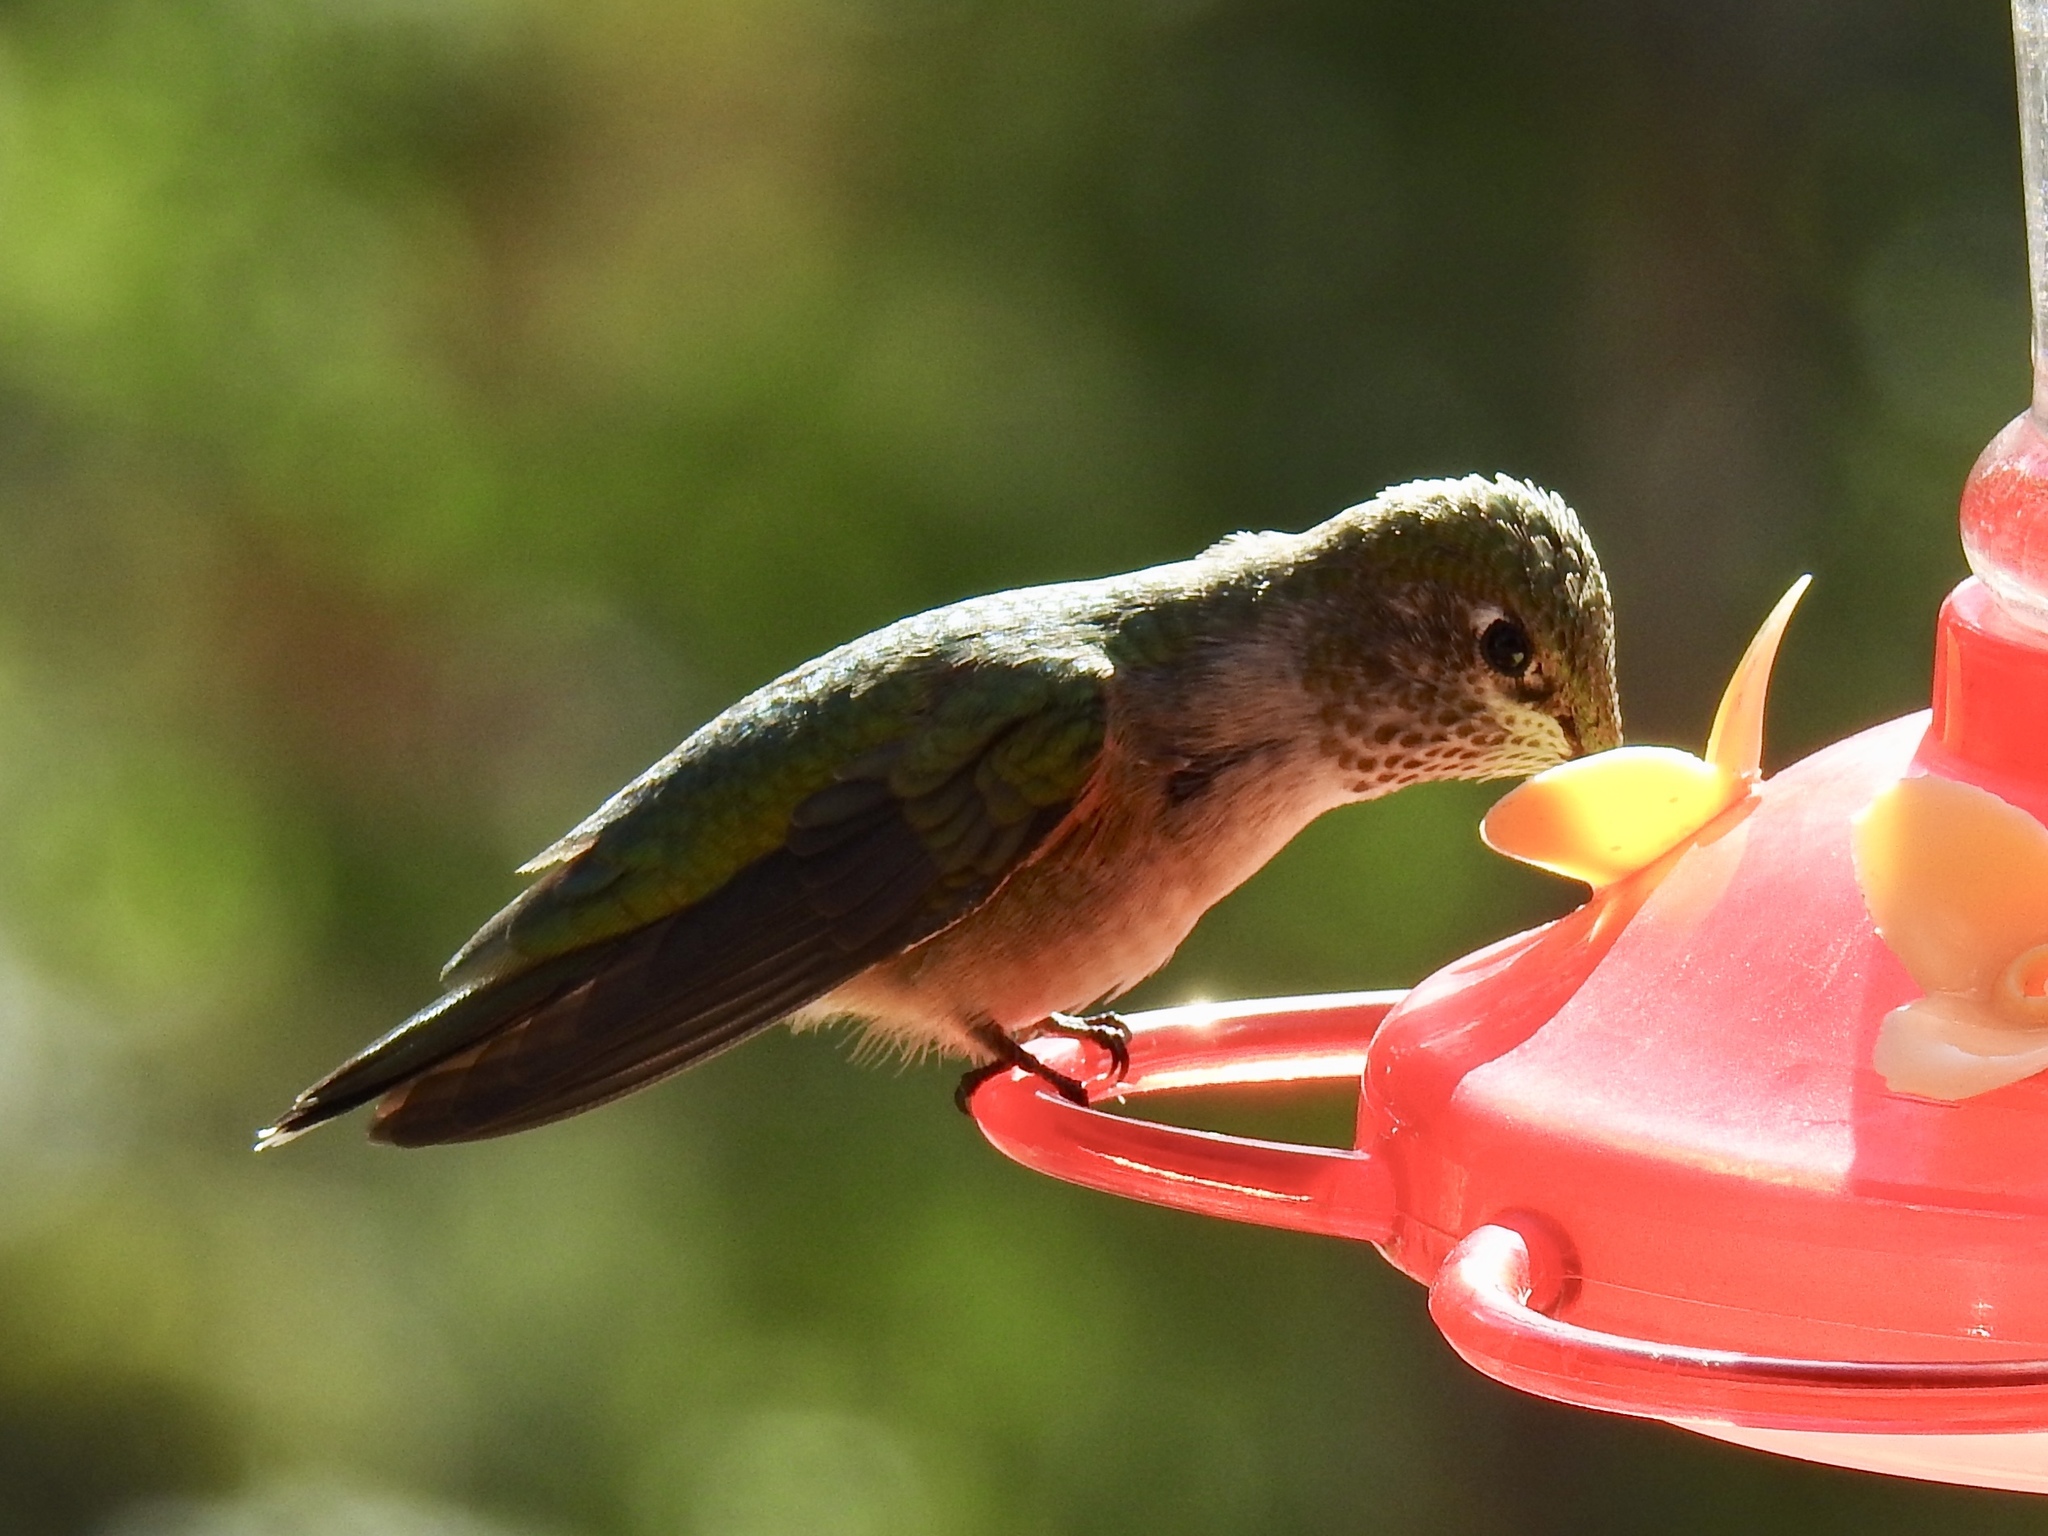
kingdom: Animalia
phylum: Chordata
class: Aves
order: Apodiformes
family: Trochilidae
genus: Selasphorus
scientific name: Selasphorus platycercus
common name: Broad-tailed hummingbird
